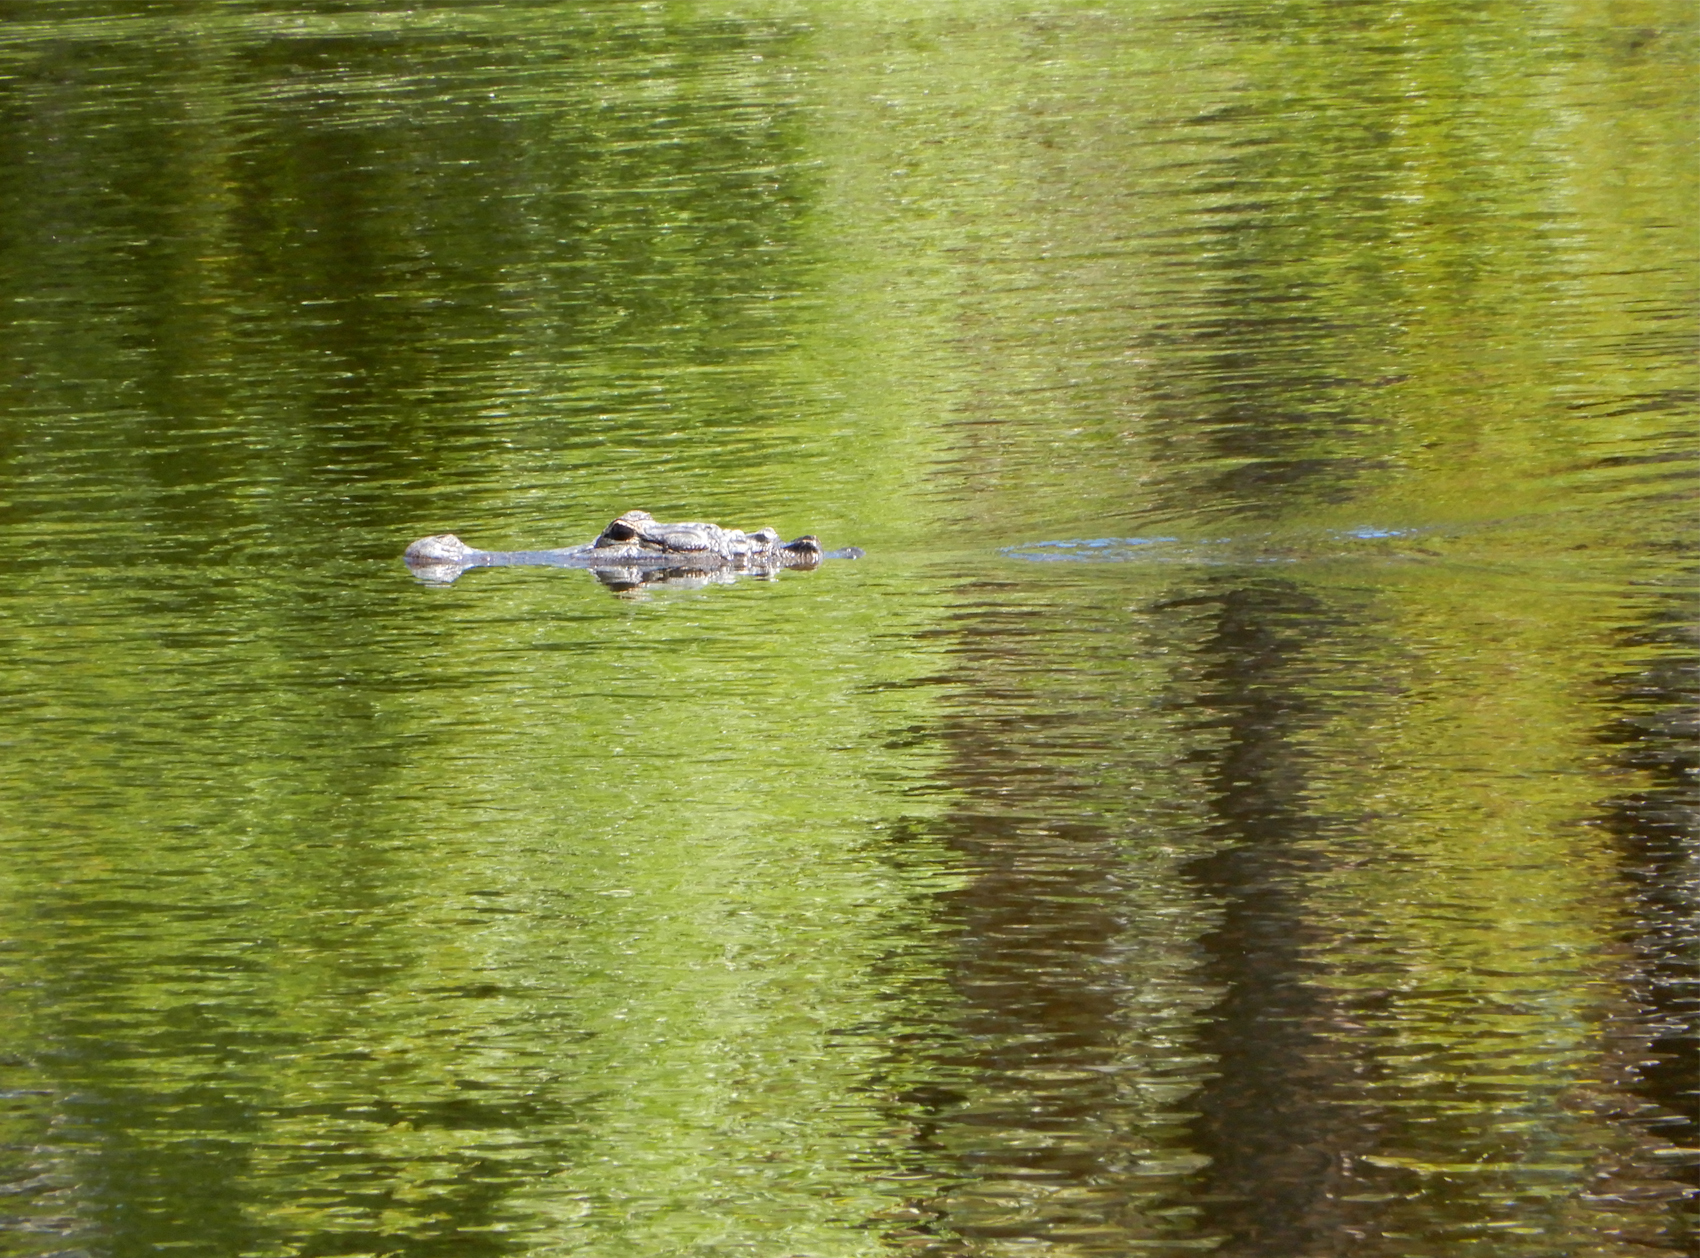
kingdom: Animalia
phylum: Chordata
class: Crocodylia
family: Alligatoridae
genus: Alligator
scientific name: Alligator mississippiensis
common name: American alligator
